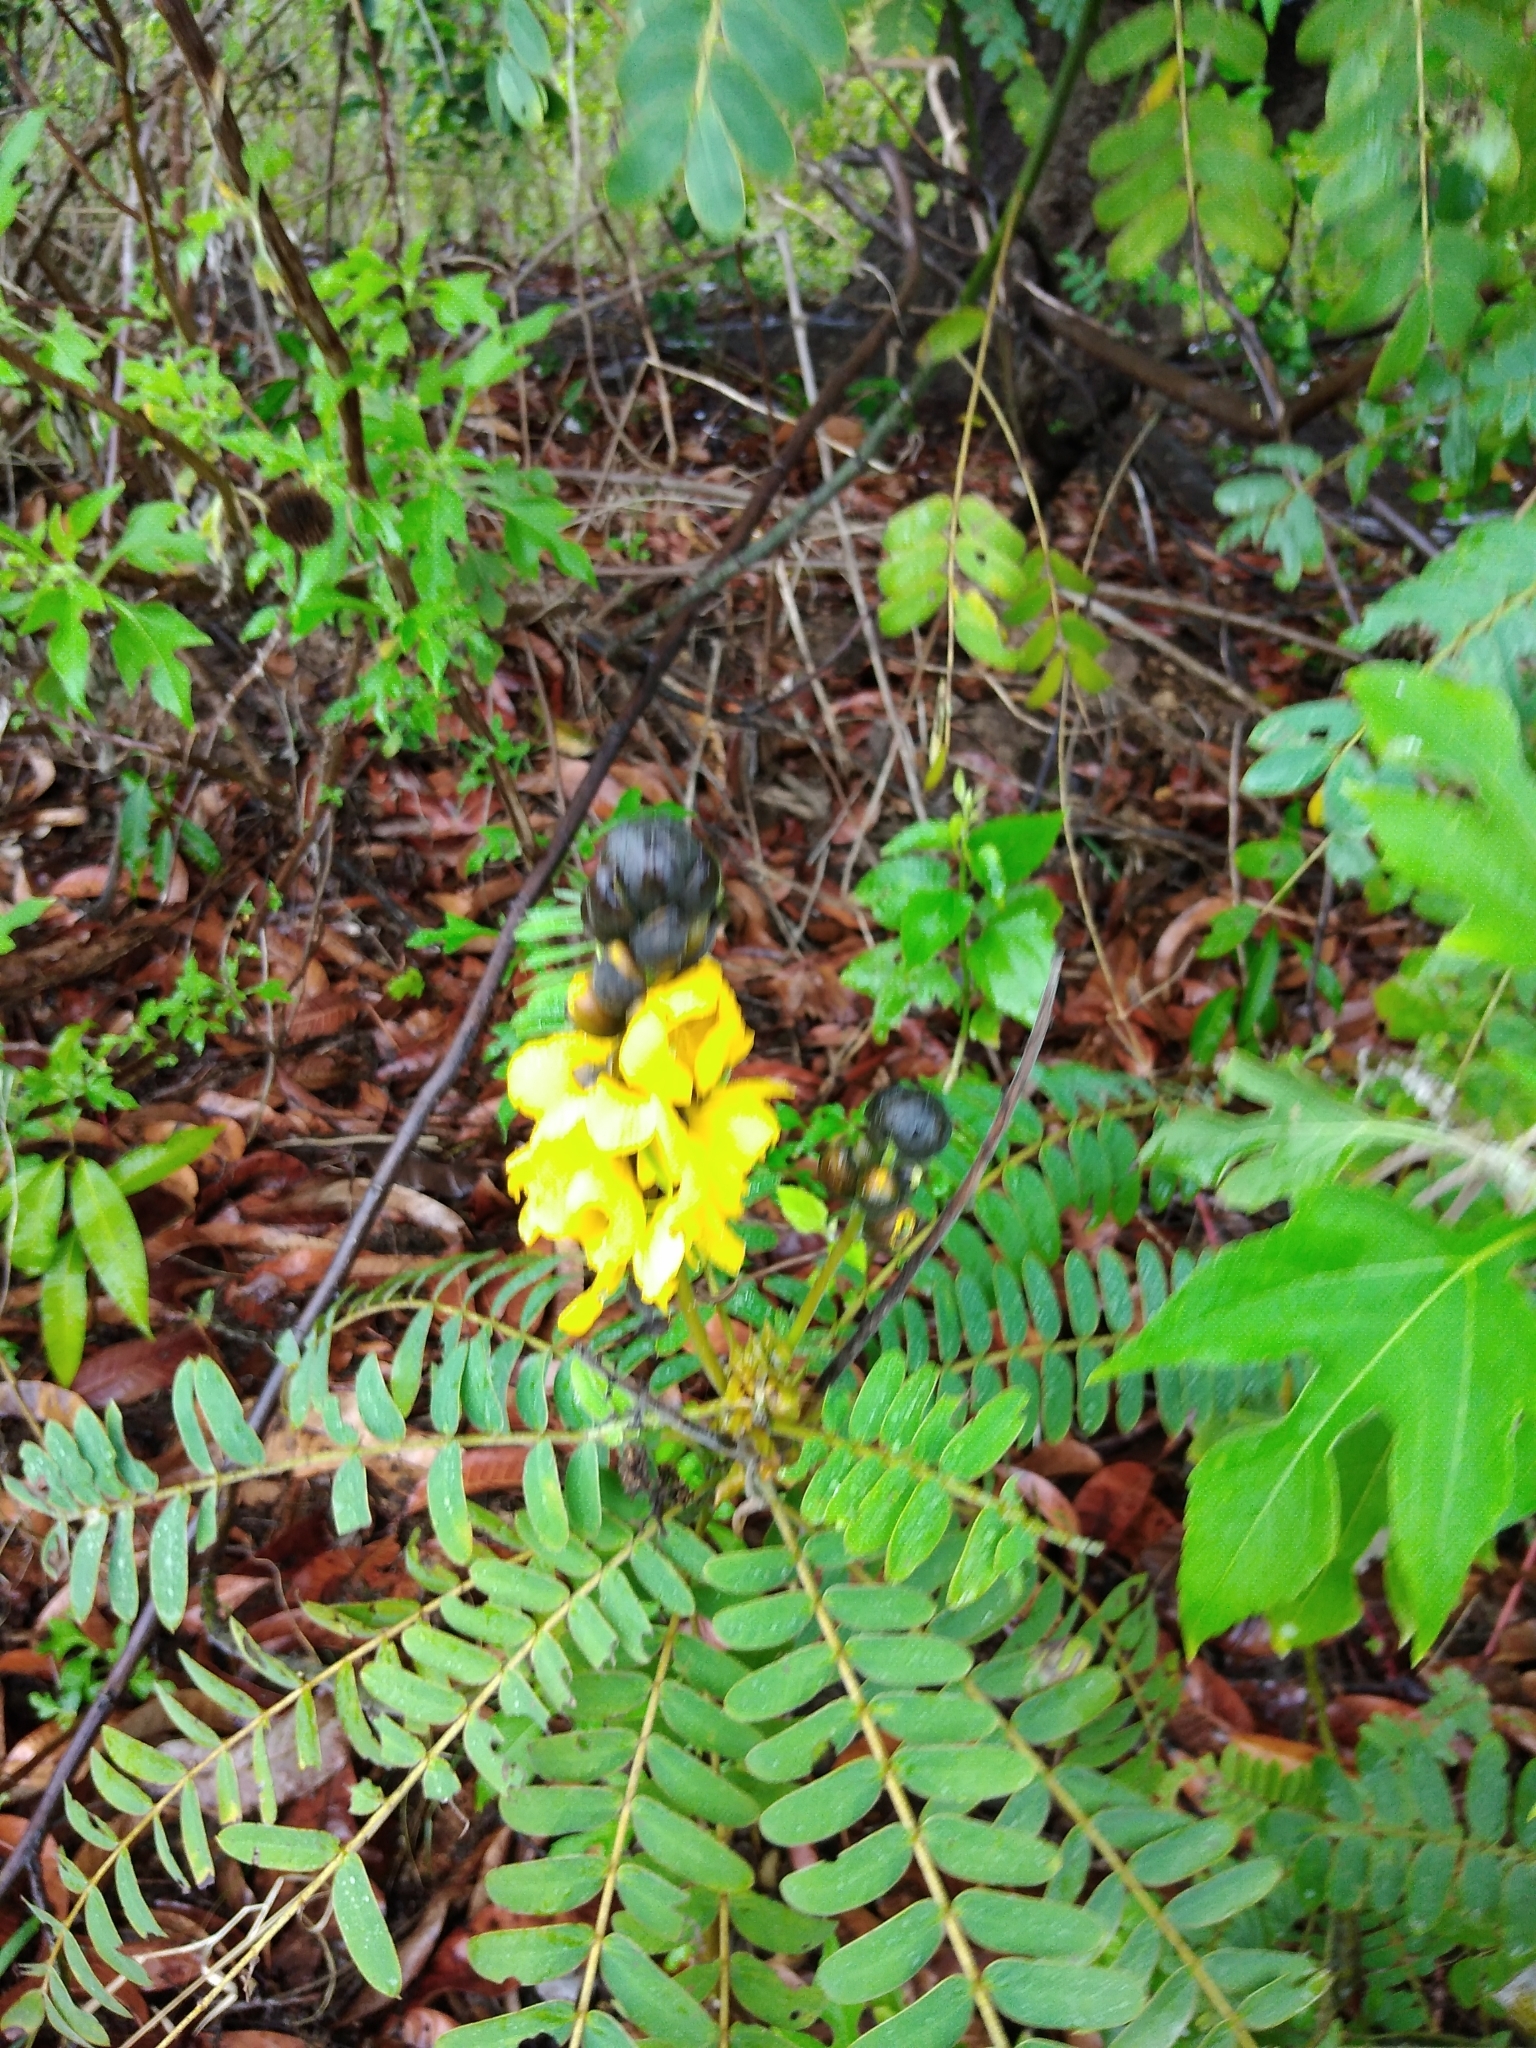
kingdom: Plantae
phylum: Tracheophyta
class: Magnoliopsida
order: Fabales
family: Fabaceae
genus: Senna
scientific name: Senna didymobotrya
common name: African senna
